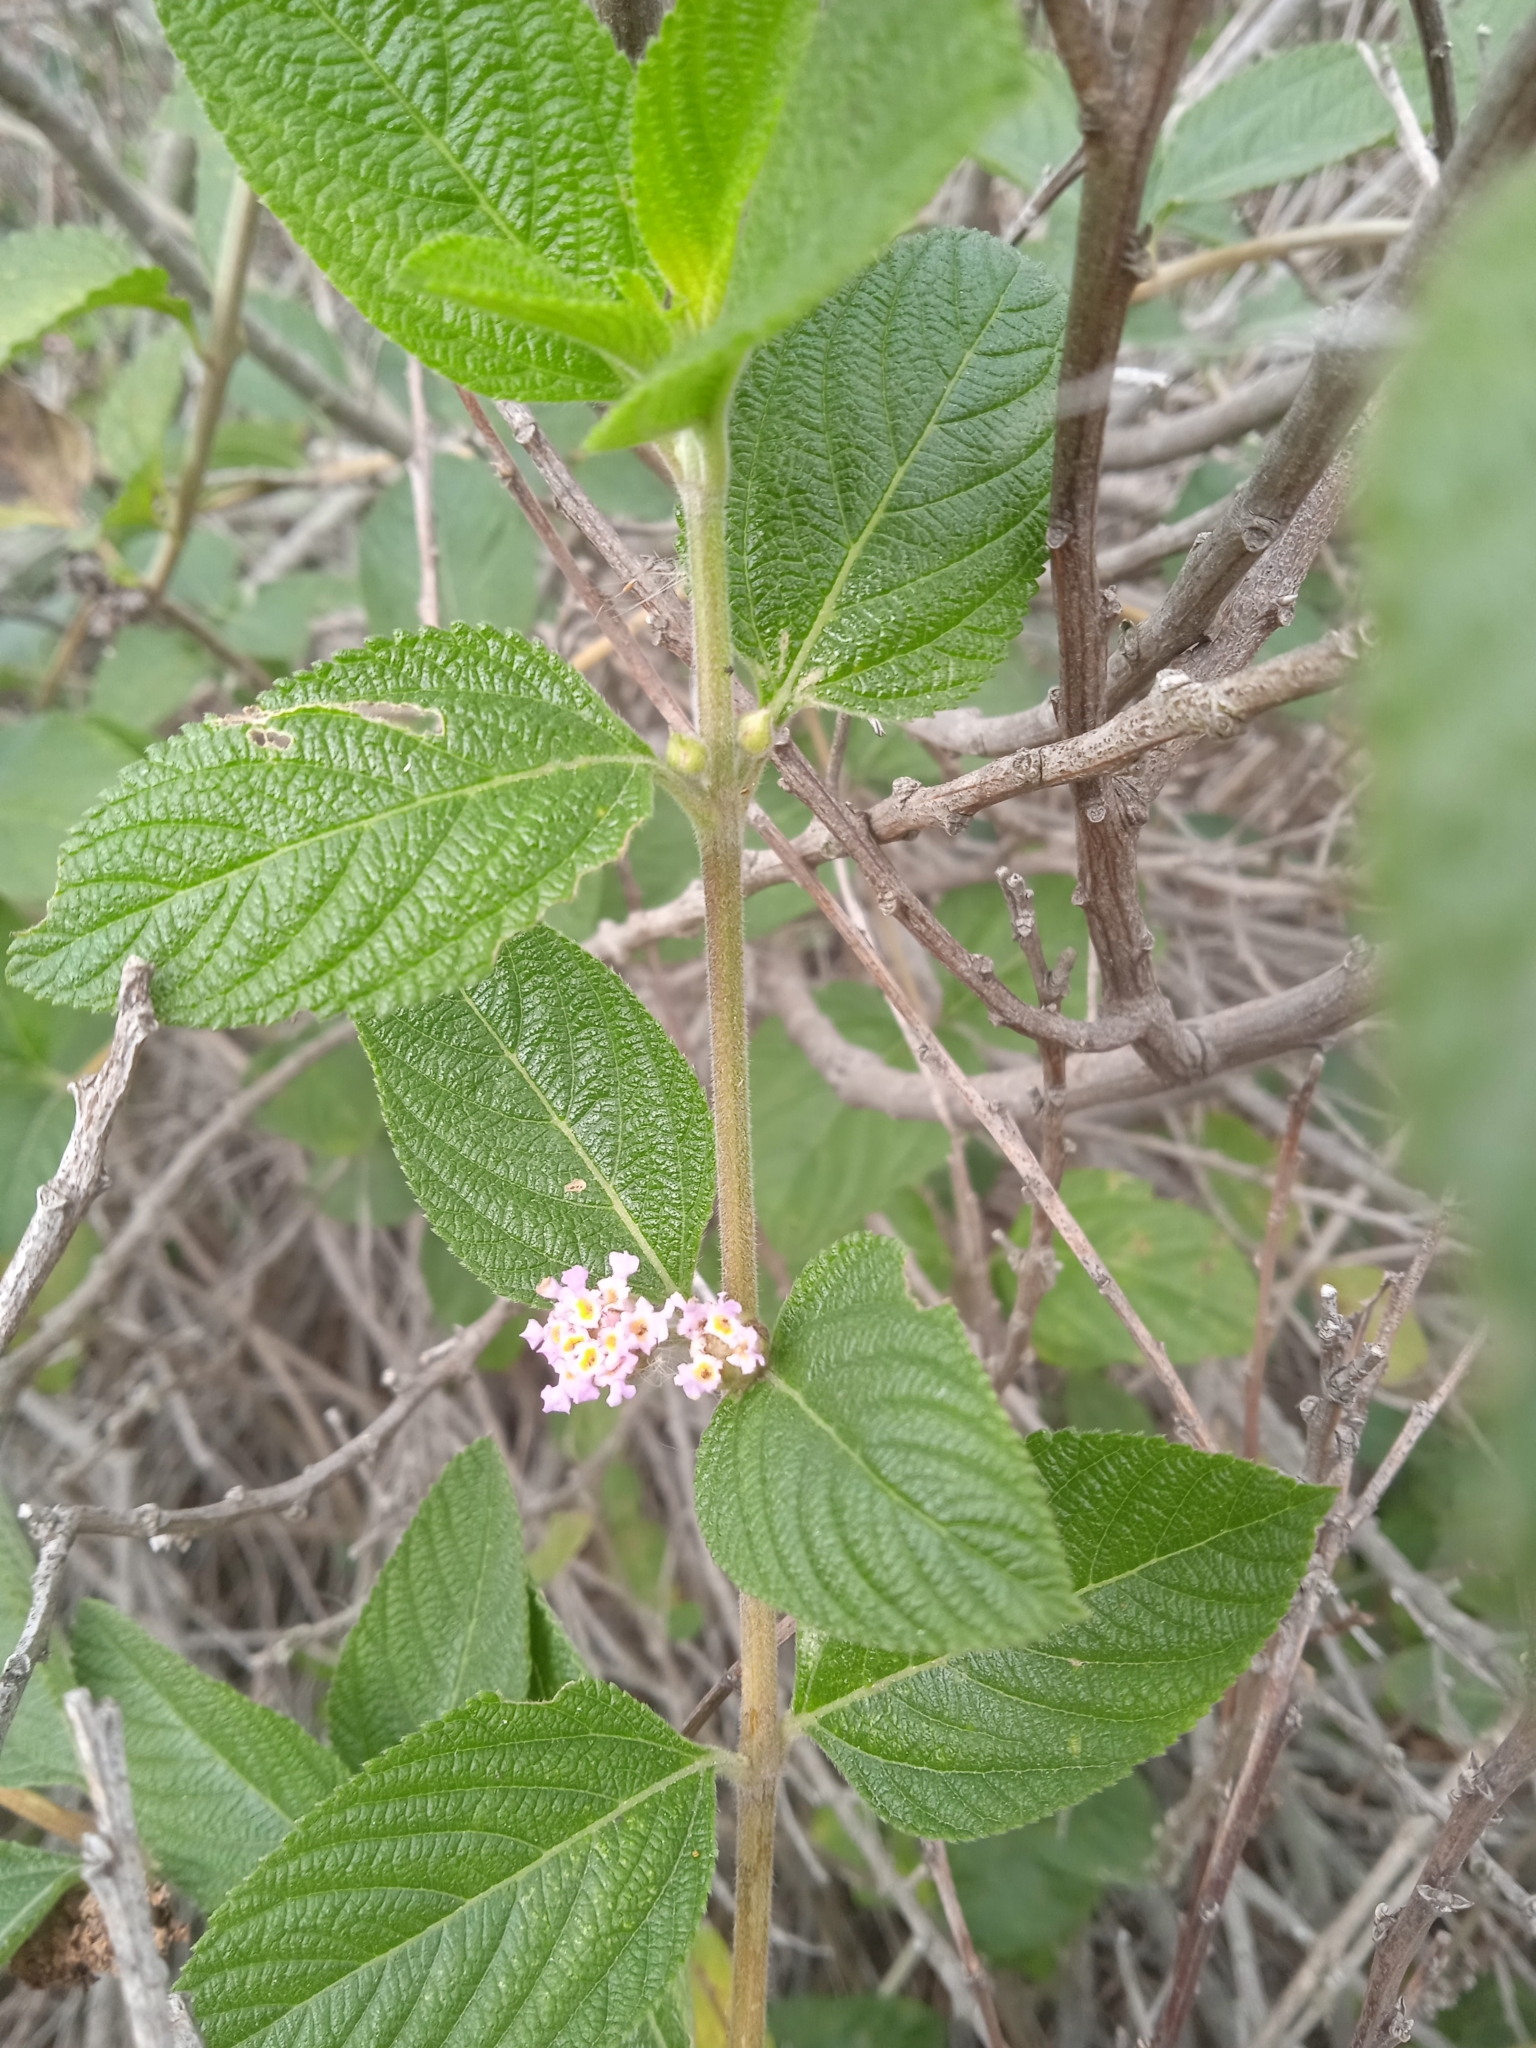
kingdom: Plantae
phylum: Tracheophyta
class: Magnoliopsida
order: Lamiales
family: Verbenaceae
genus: Lippia
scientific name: Lippia alba
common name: Bushy matgrass
